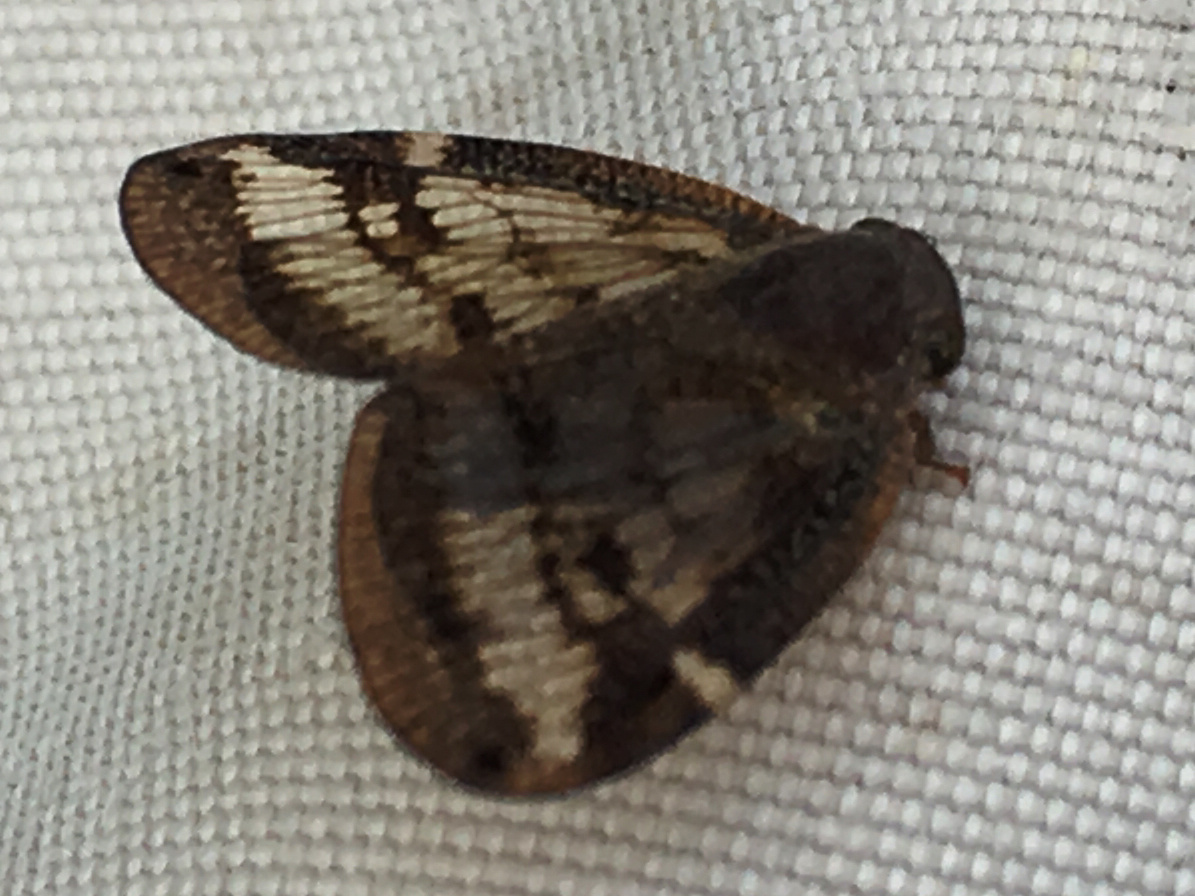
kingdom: Animalia
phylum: Arthropoda
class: Insecta
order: Hemiptera
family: Ricaniidae
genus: Scolypopa
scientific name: Scolypopa australis
